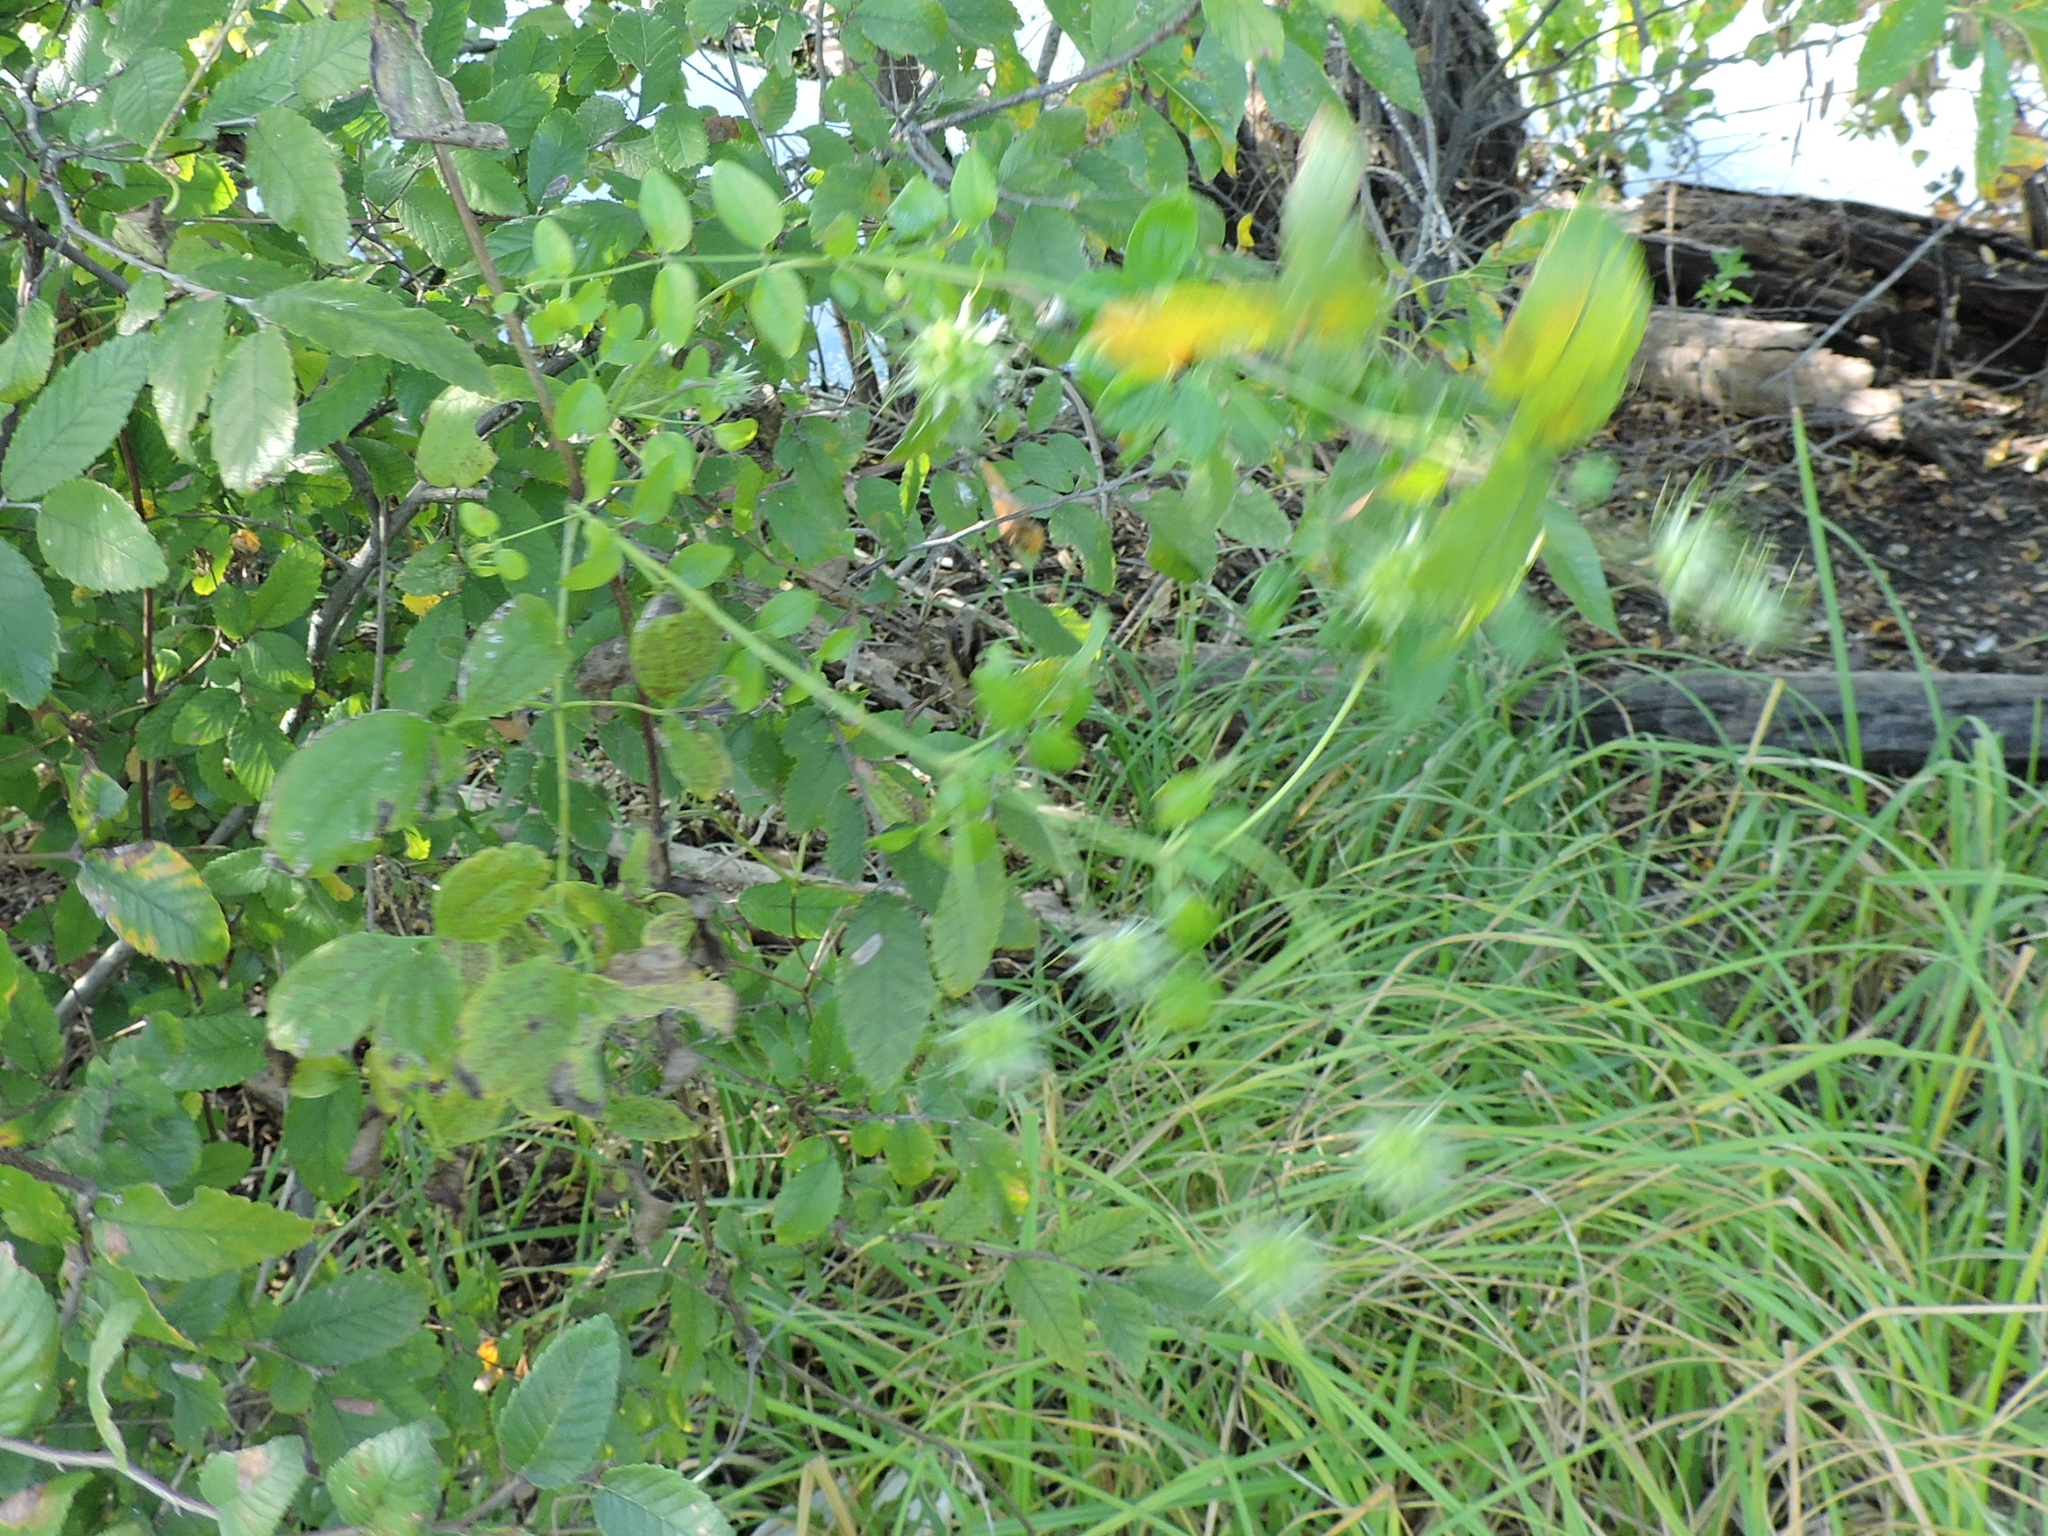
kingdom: Plantae
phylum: Tracheophyta
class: Magnoliopsida
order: Ranunculales
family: Ranunculaceae
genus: Clematis
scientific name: Clematis pitcheri
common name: Bellflower clematis
